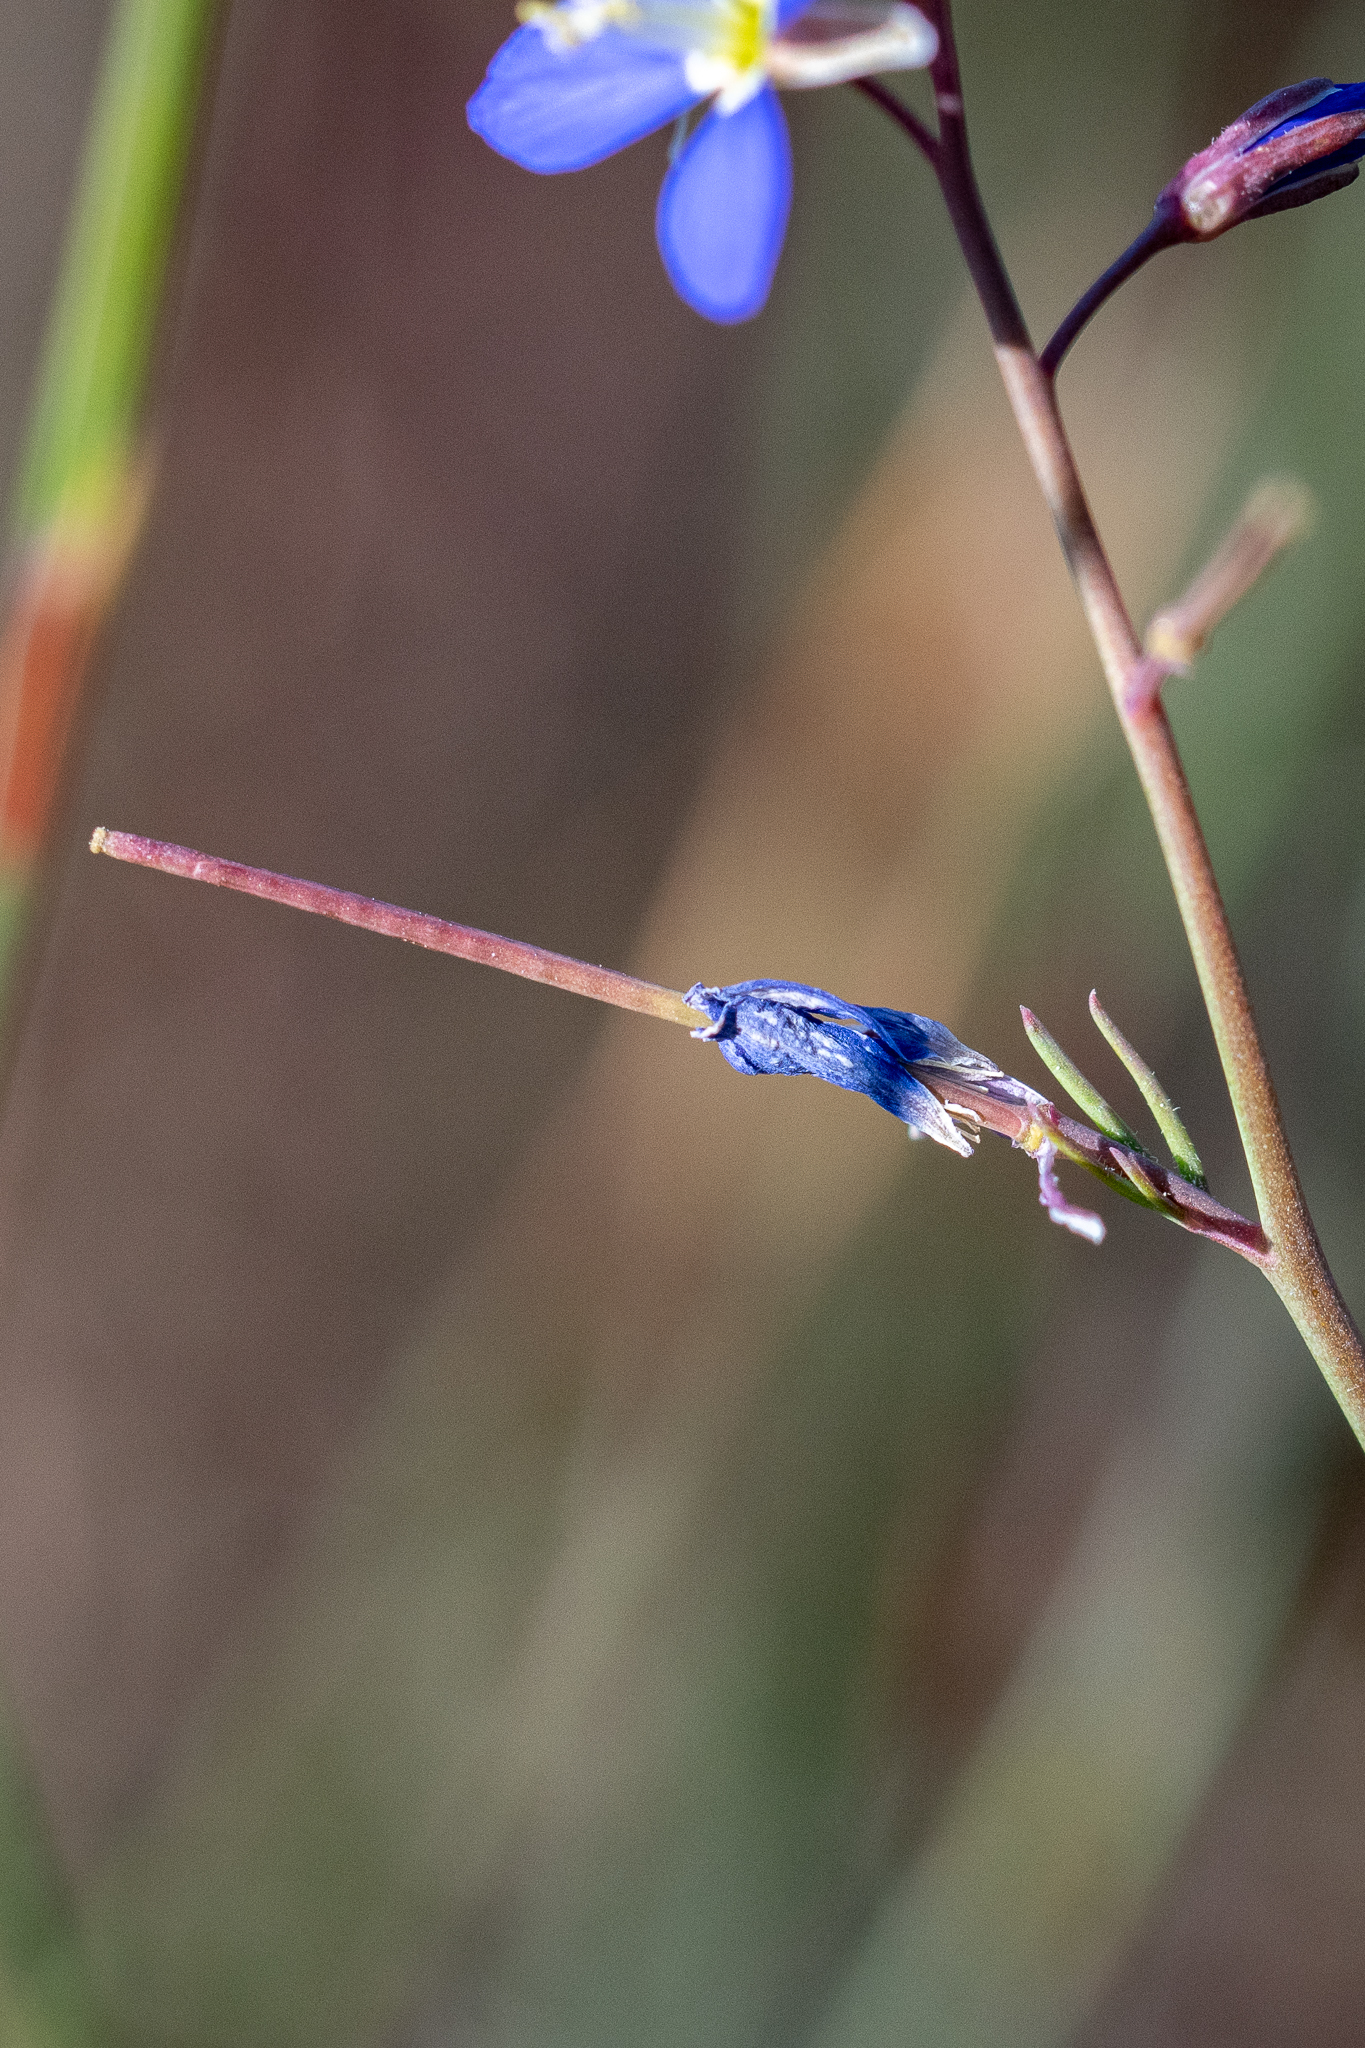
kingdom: Plantae
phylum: Tracheophyta
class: Magnoliopsida
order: Brassicales
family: Brassicaceae
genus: Heliophila
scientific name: Heliophila digitata
